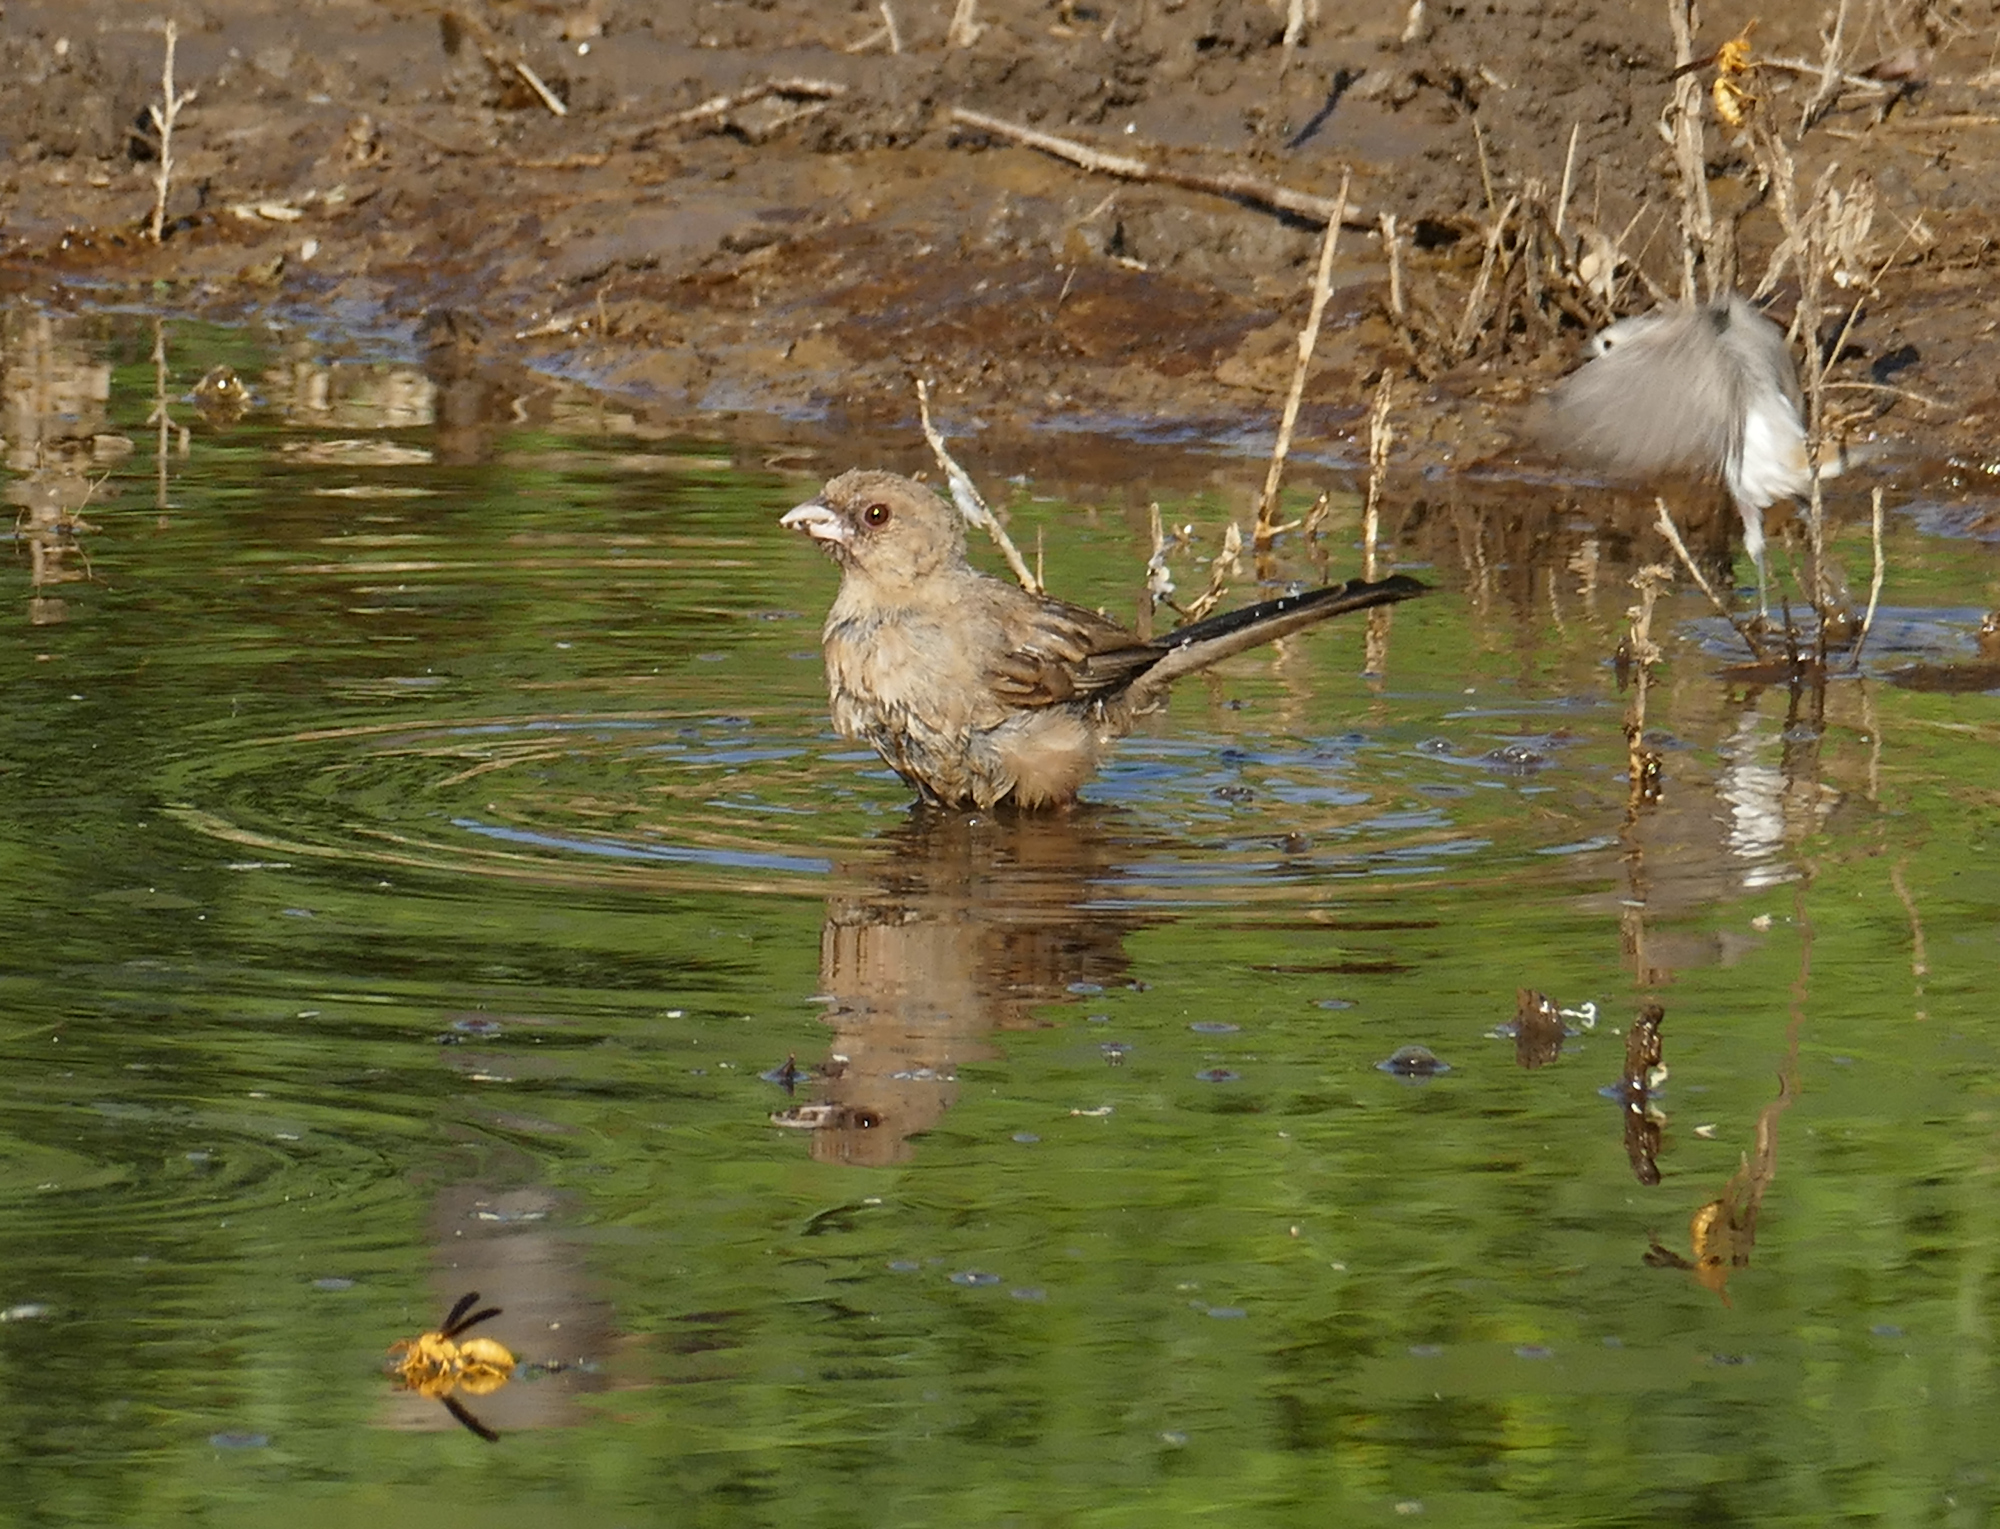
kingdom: Animalia
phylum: Chordata
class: Aves
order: Passeriformes
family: Passerellidae
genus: Melozone
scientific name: Melozone aberti
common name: Abert's towhee
